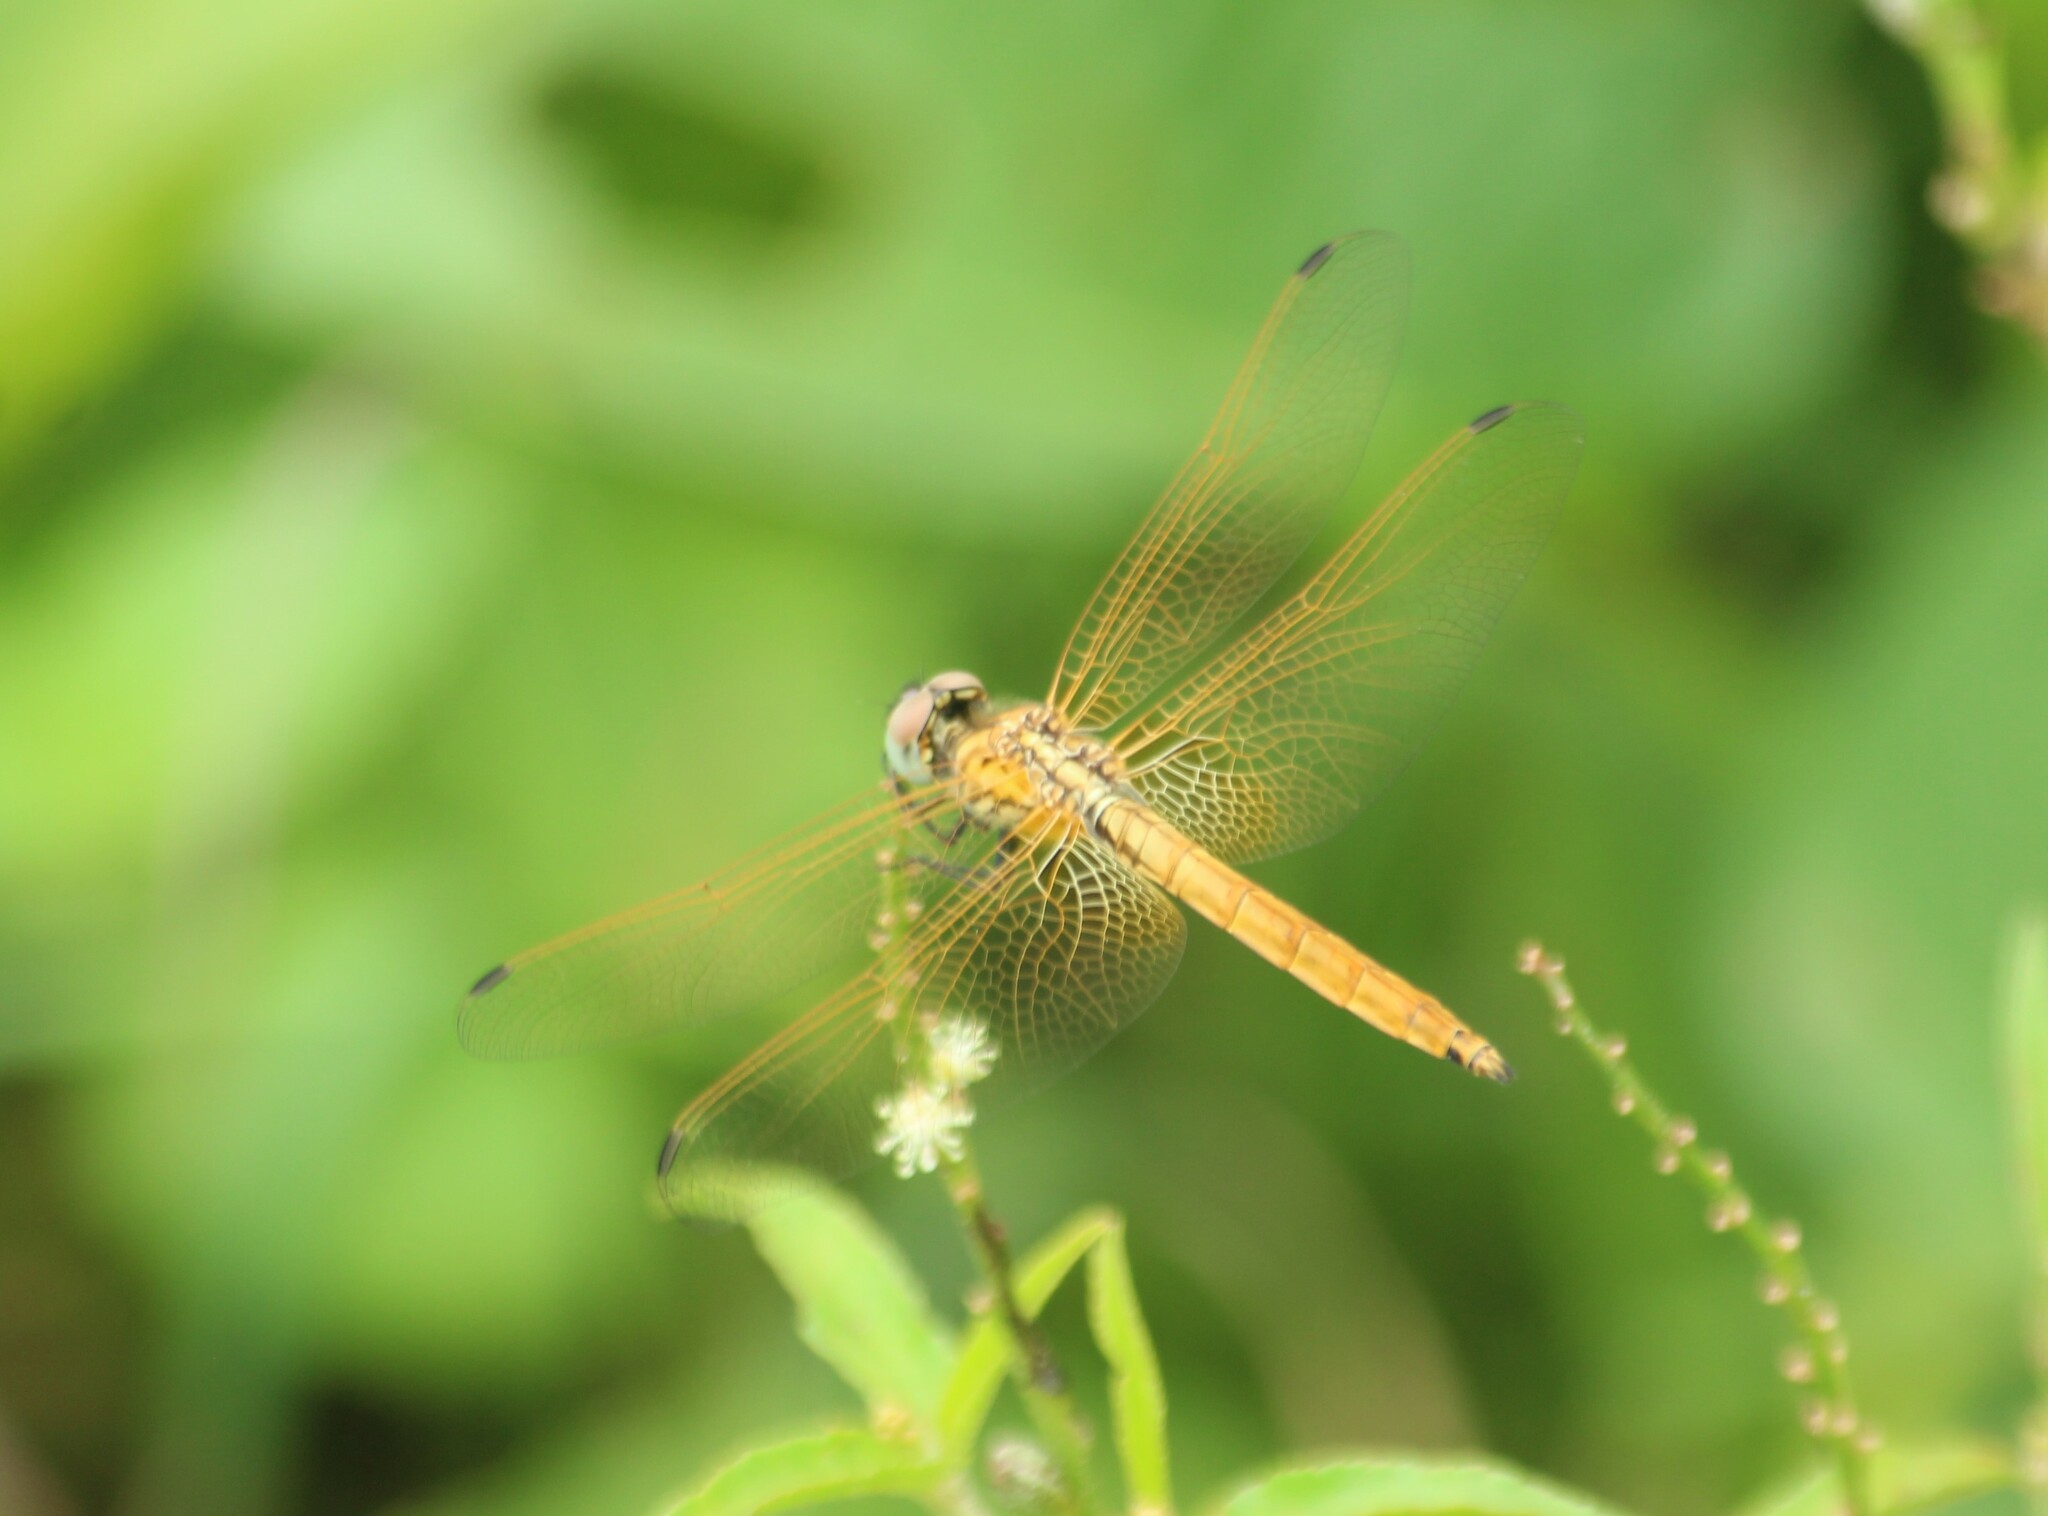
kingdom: Animalia
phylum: Arthropoda
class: Insecta
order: Odonata
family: Libellulidae
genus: Trithemis
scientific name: Trithemis aurora
